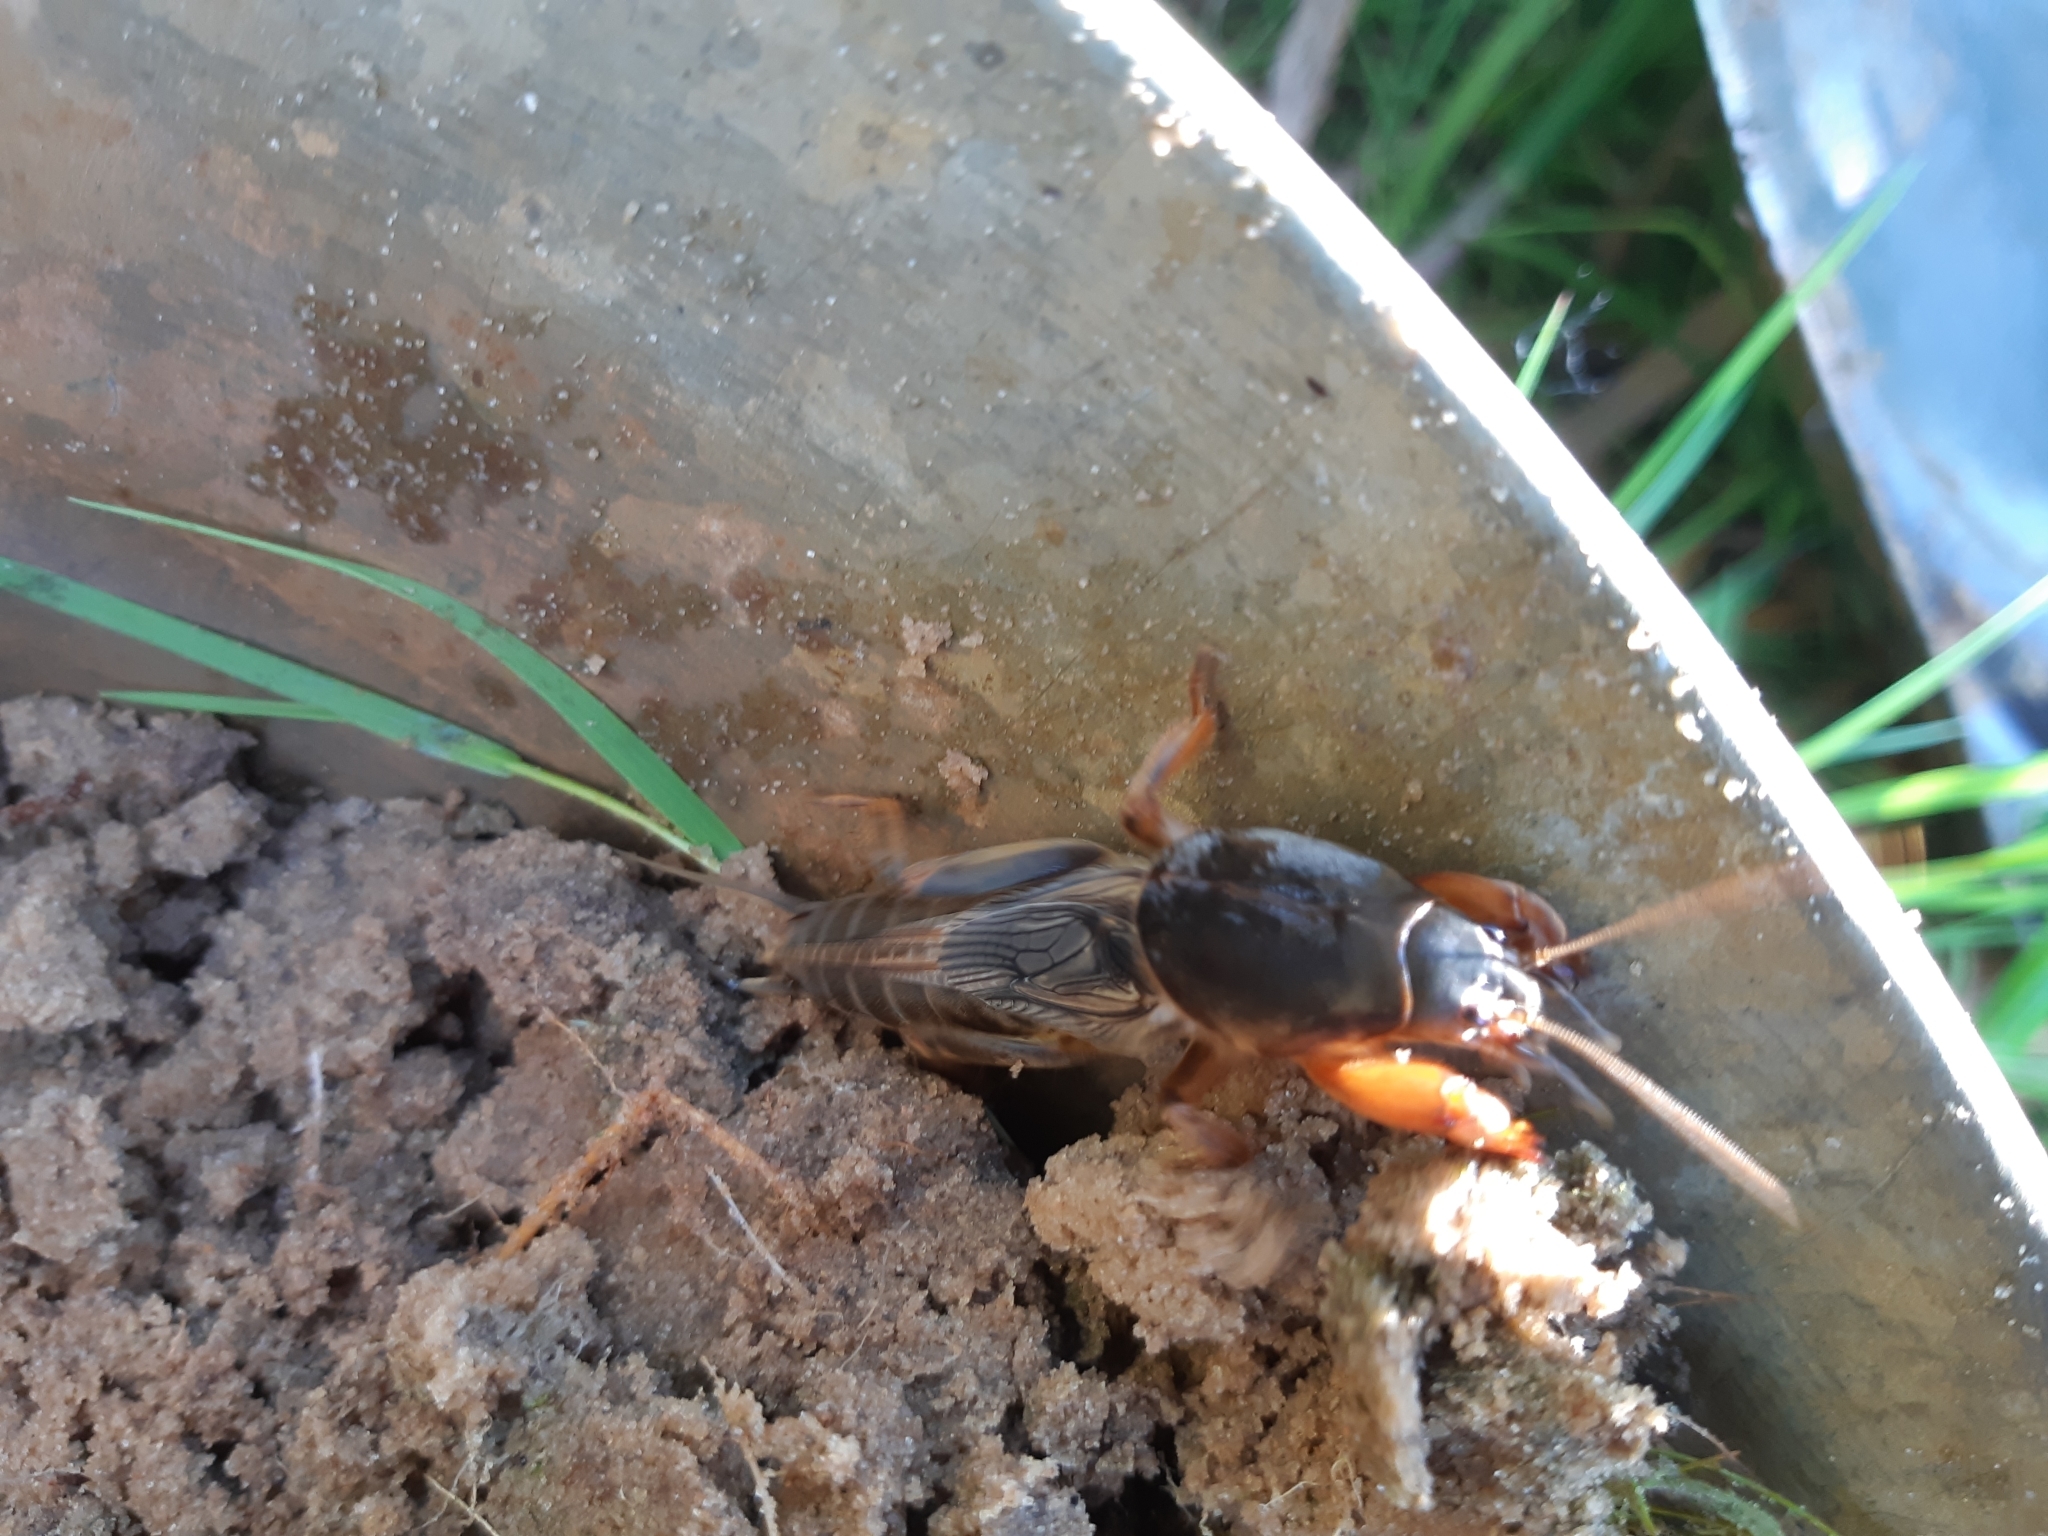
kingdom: Animalia
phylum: Arthropoda
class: Insecta
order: Orthoptera
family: Gryllotalpidae
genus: Gryllotalpa
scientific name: Gryllotalpa gryllotalpa
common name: European mole cricket
